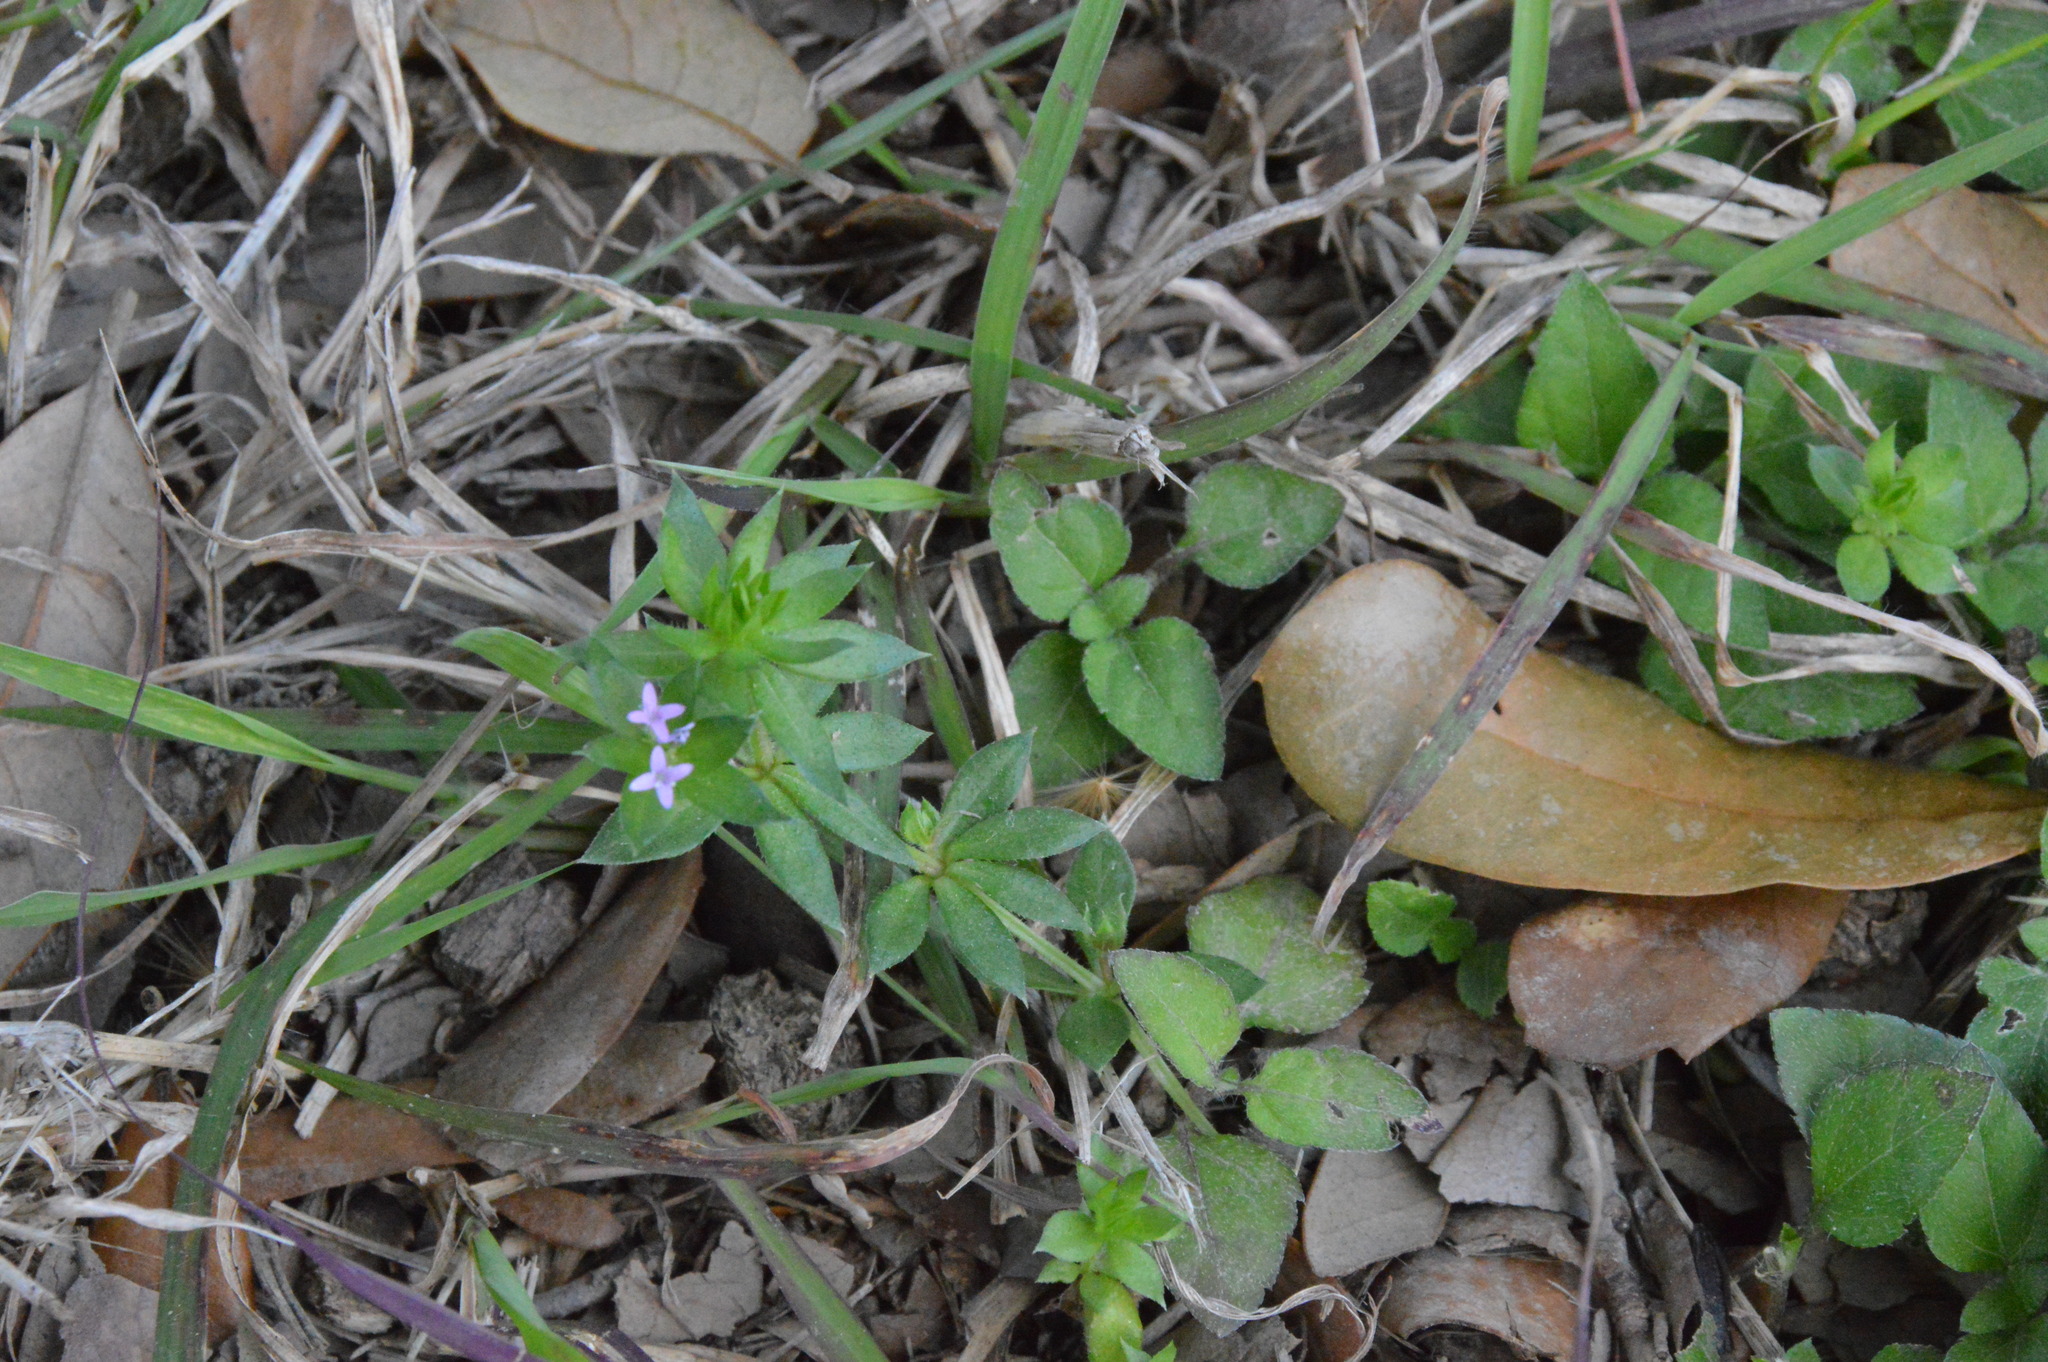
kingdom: Plantae
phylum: Tracheophyta
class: Magnoliopsida
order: Gentianales
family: Rubiaceae
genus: Sherardia
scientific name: Sherardia arvensis
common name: Field madder
